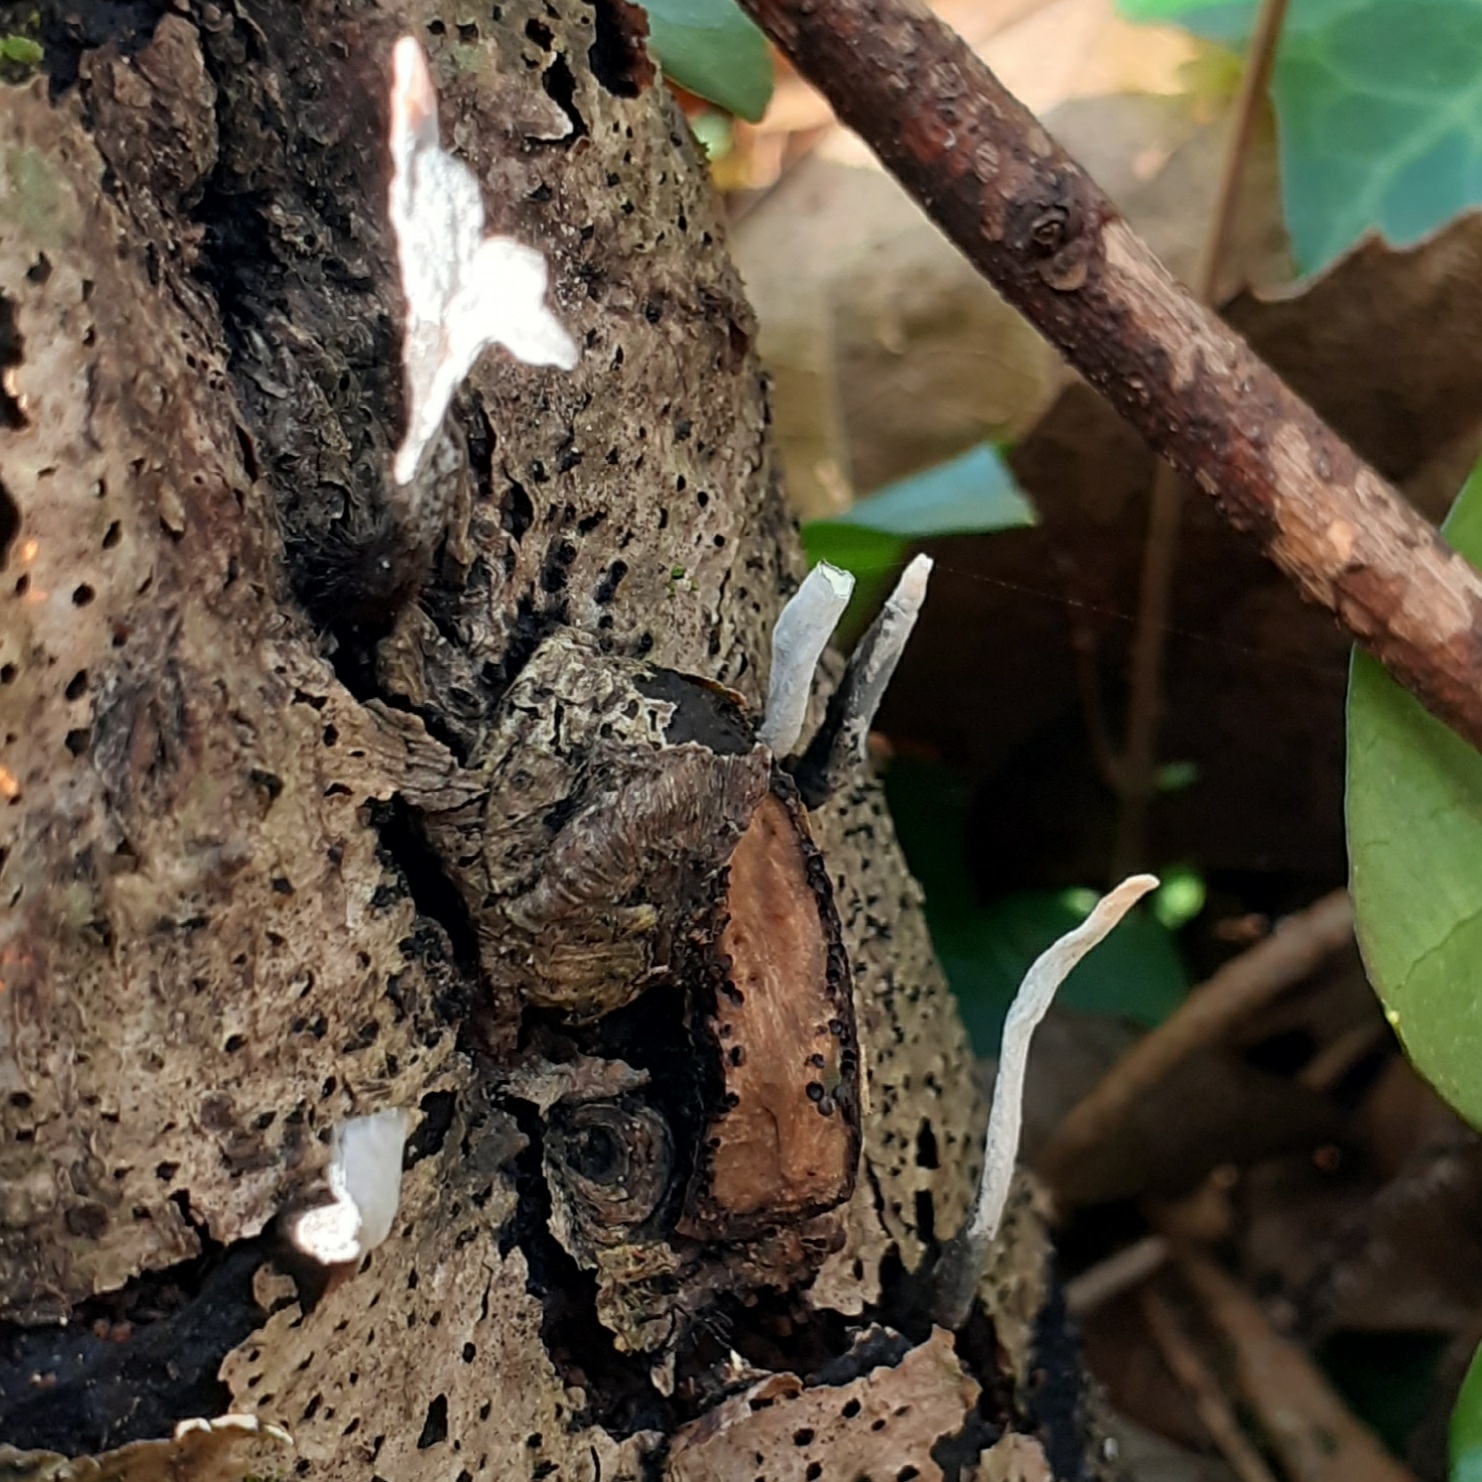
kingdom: Fungi
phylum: Ascomycota
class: Sordariomycetes
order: Xylariales
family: Xylariaceae
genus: Xylaria
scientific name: Xylaria hypoxylon
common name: Candle-snuff fungus
